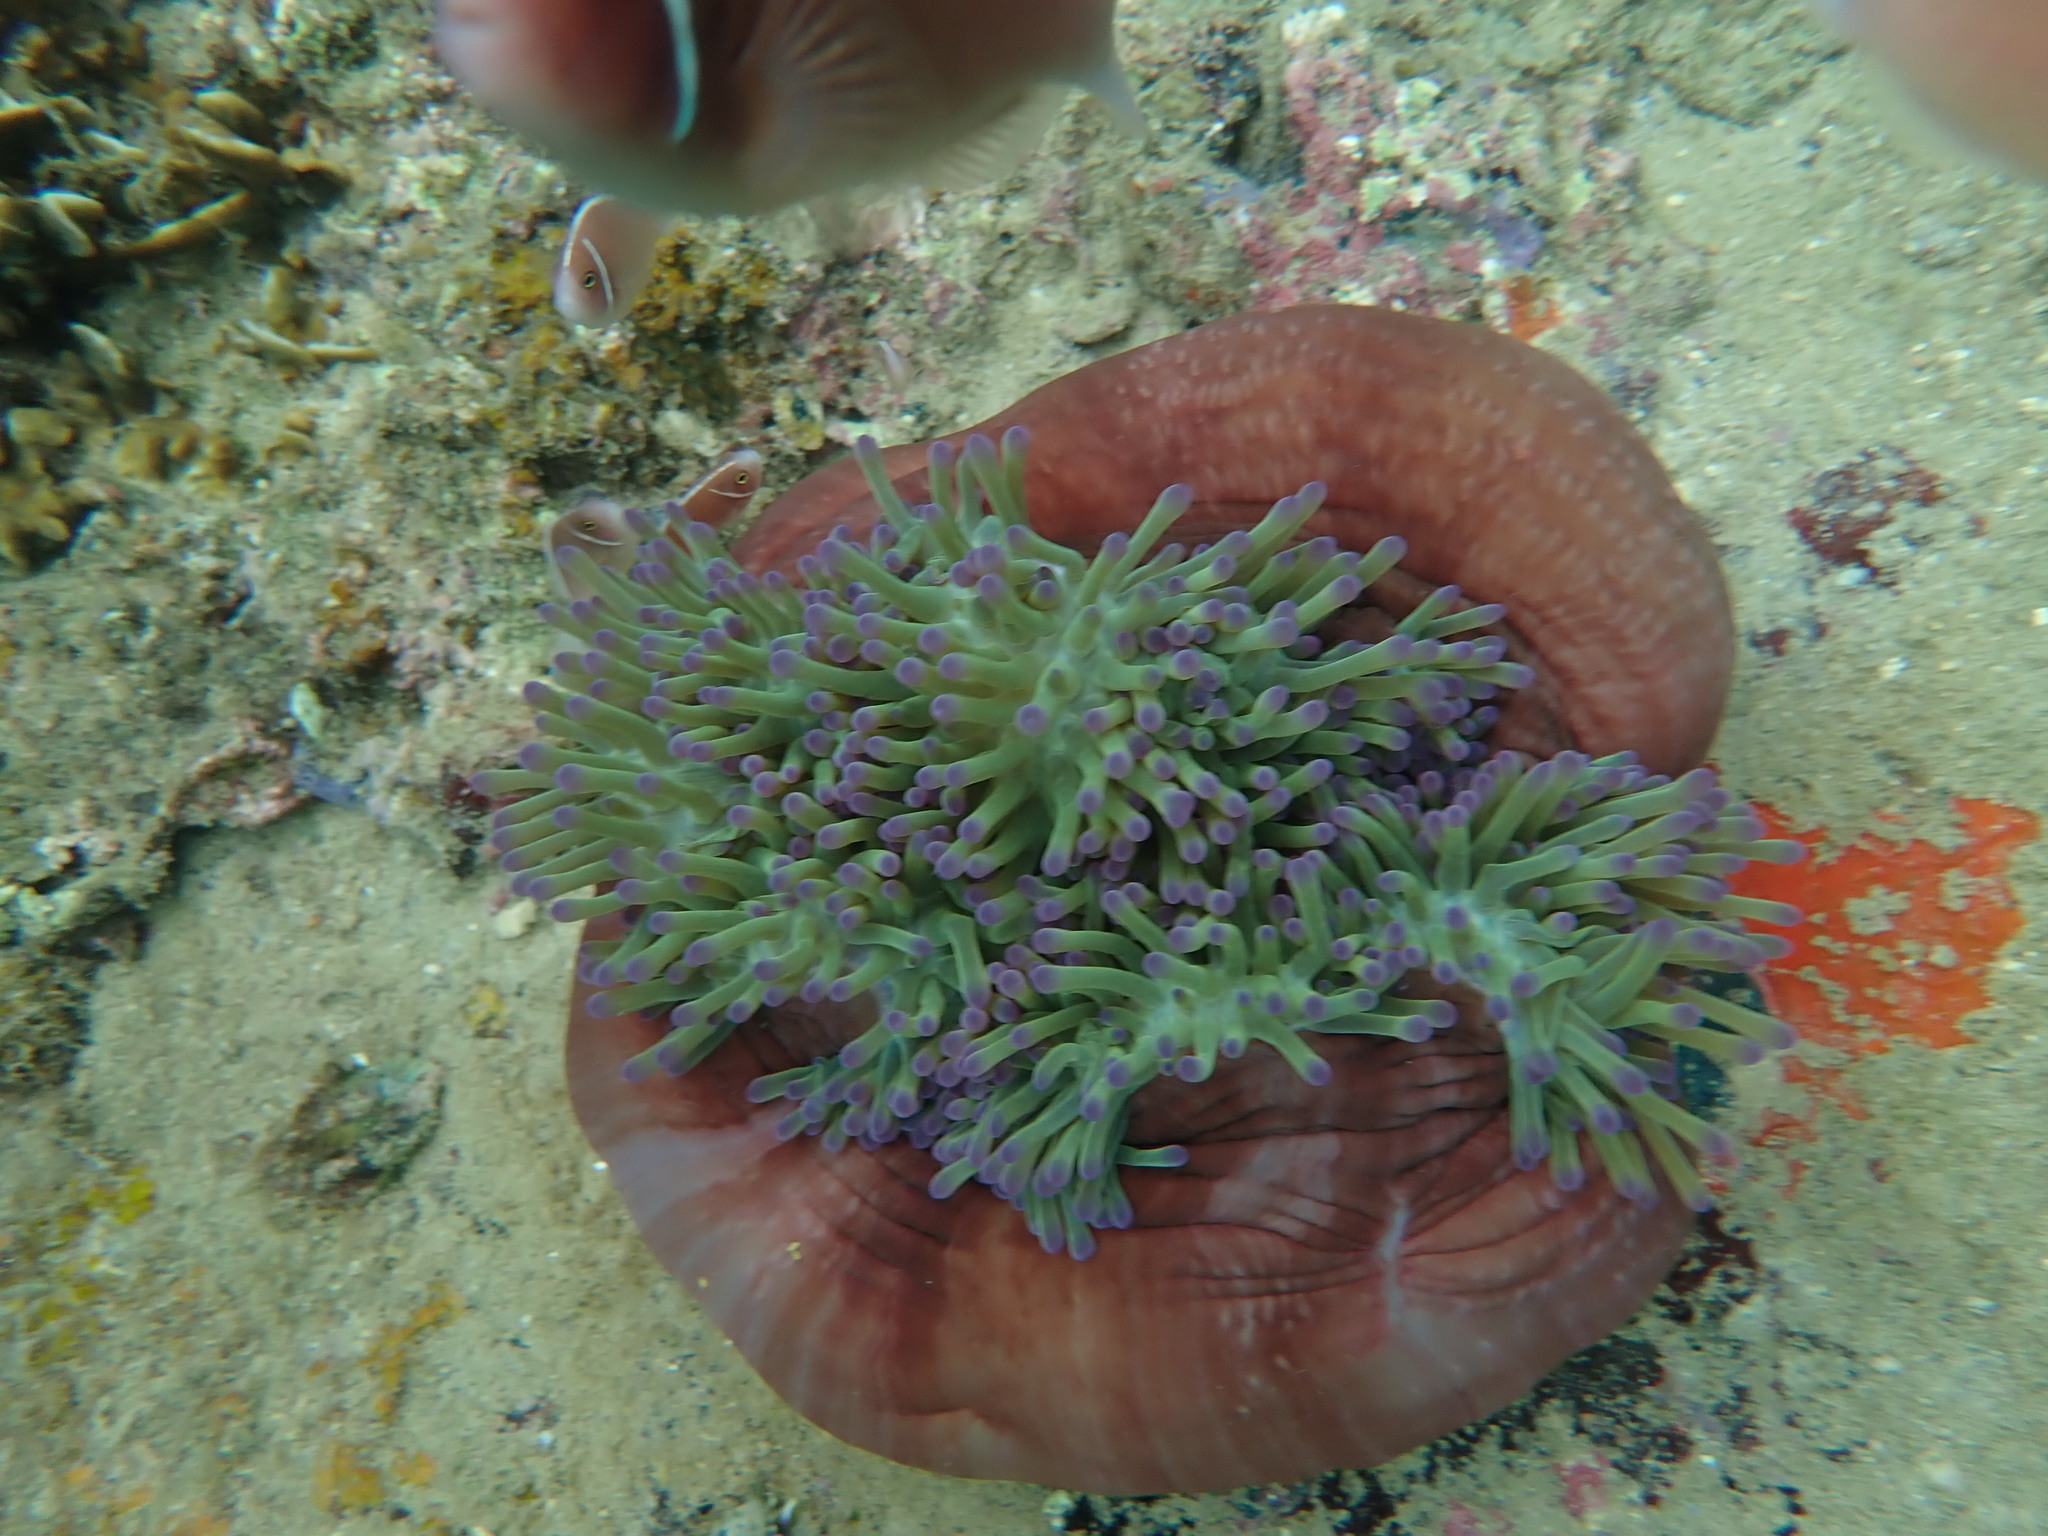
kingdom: Animalia
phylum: Cnidaria
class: Anthozoa
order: Actiniaria
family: Stichodactylidae
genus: Radianthus
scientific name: Radianthus magnifica
